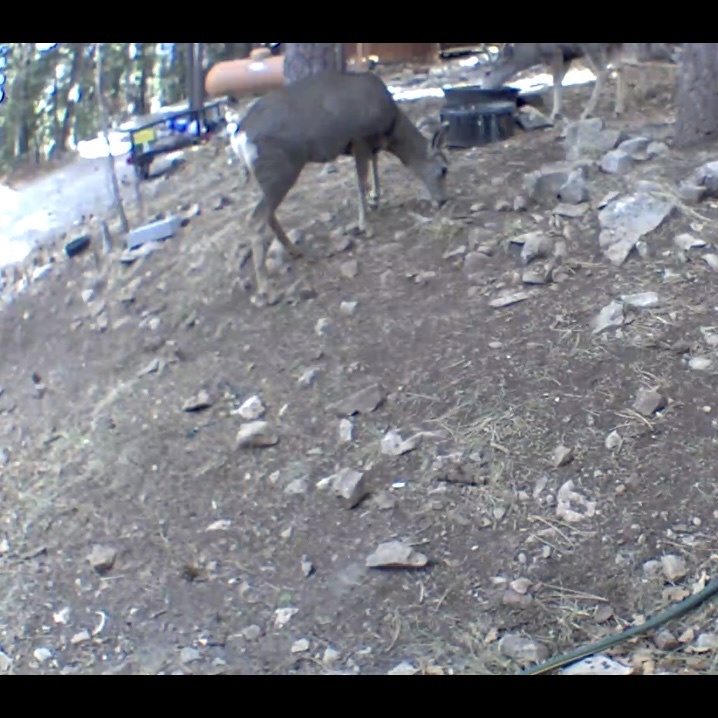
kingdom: Animalia
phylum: Chordata
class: Mammalia
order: Artiodactyla
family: Cervidae
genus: Odocoileus
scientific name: Odocoileus hemionus
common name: Mule deer
